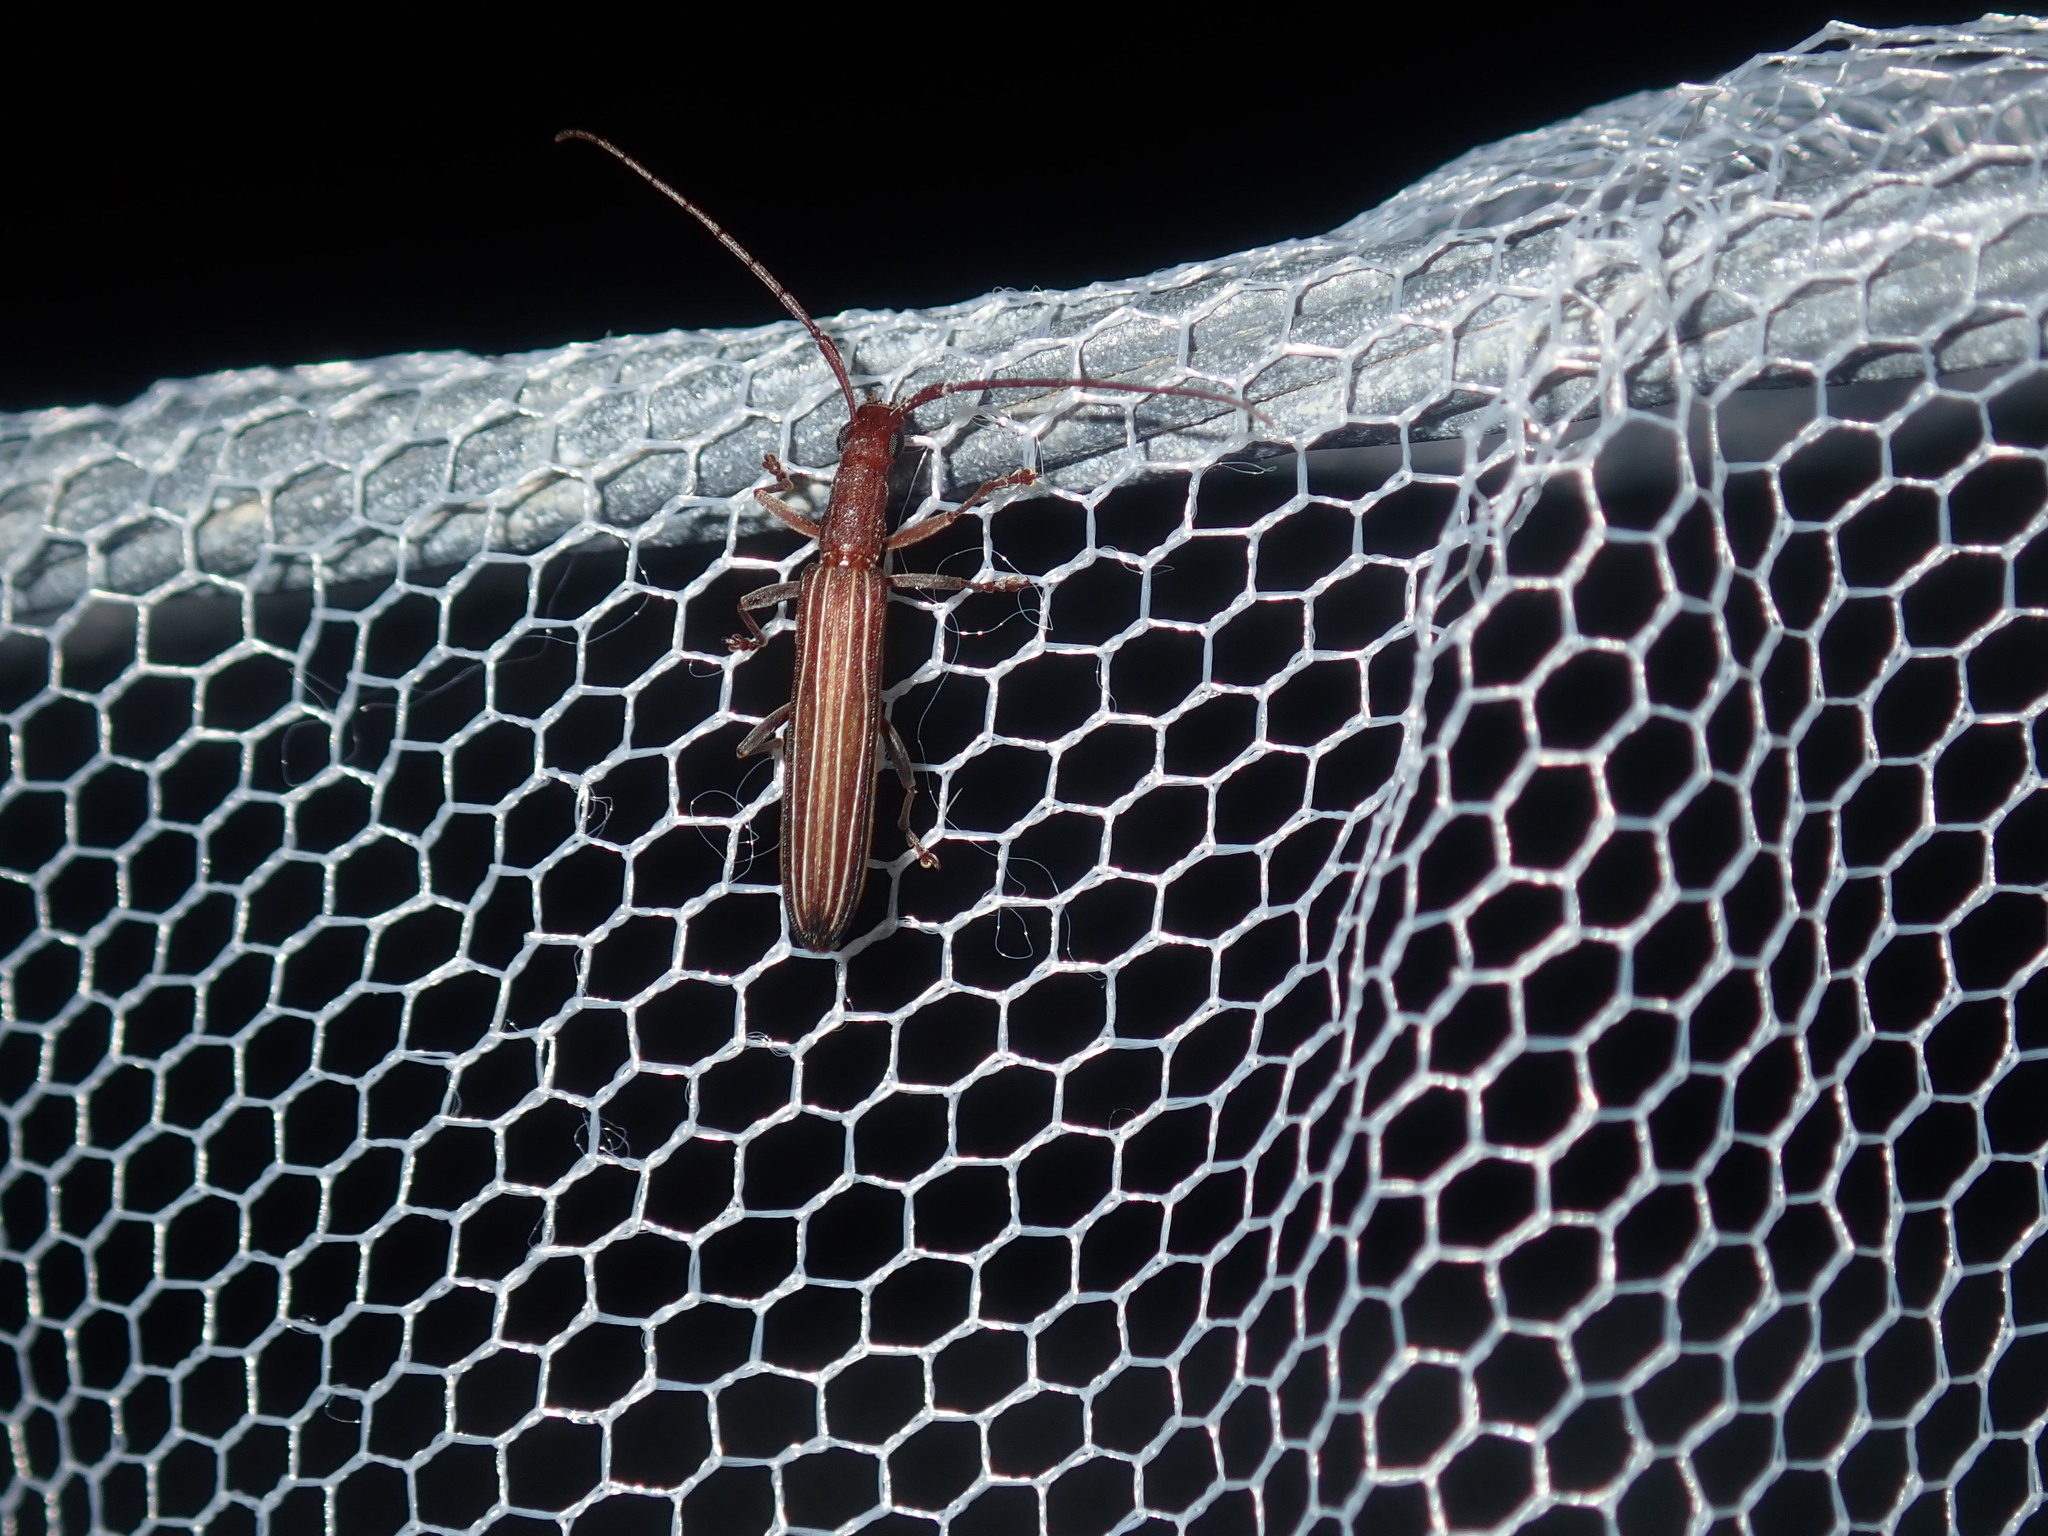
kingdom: Animalia
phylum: Arthropoda
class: Insecta
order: Coleoptera
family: Cerambycidae
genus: Syllitus
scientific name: Syllitus grammicus
